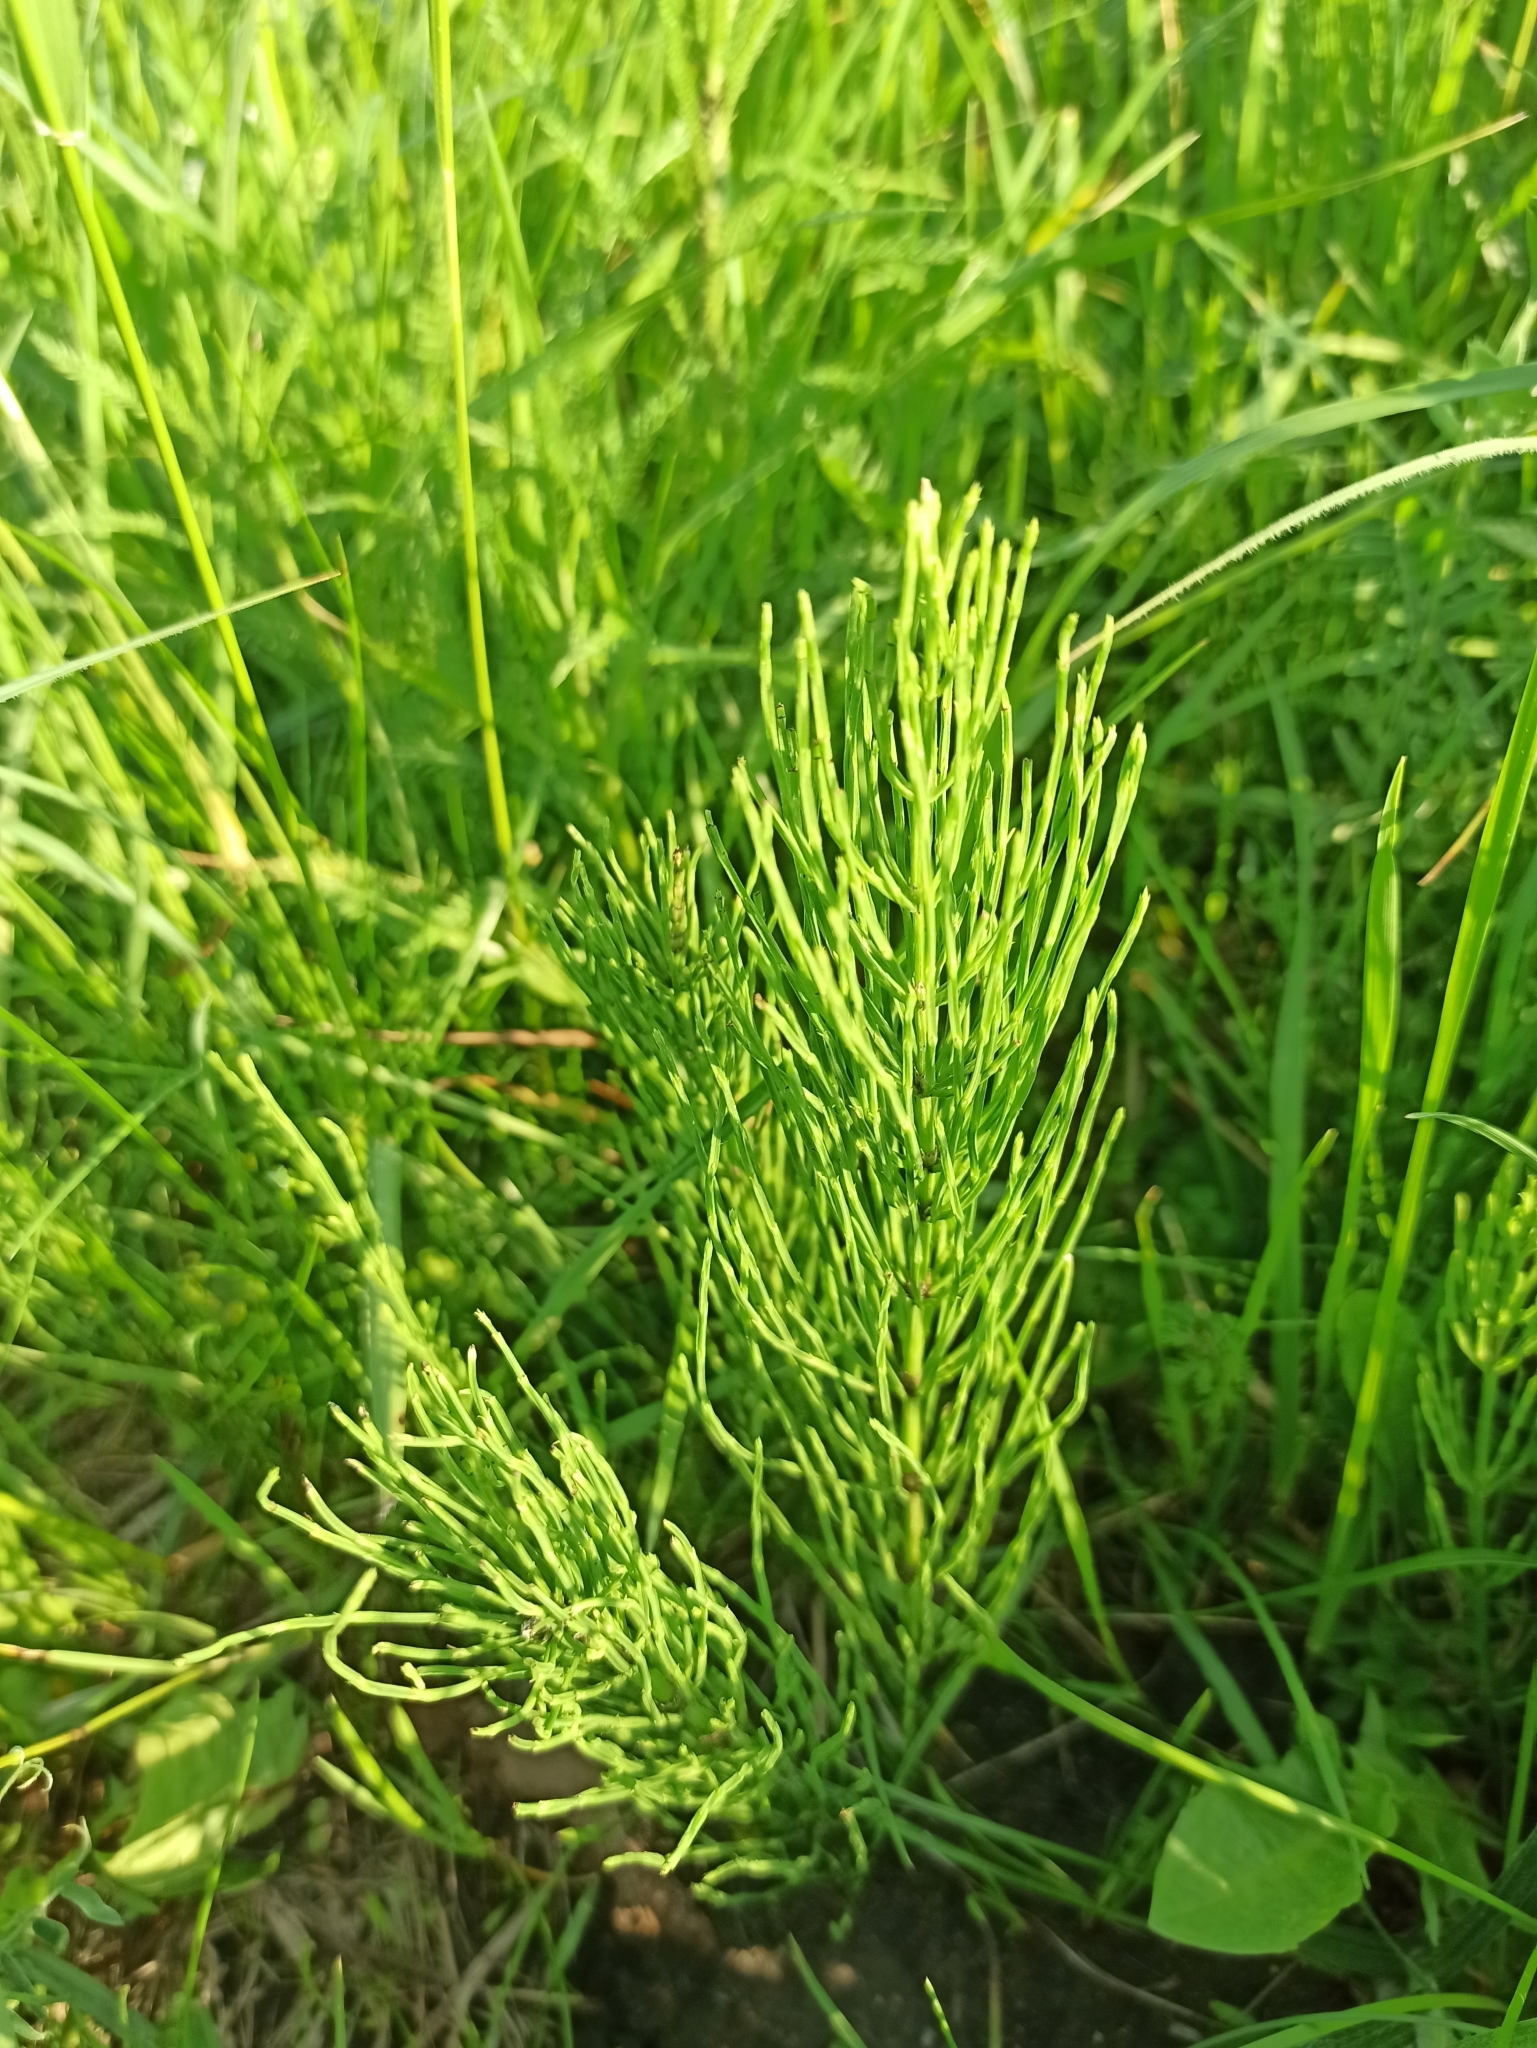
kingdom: Plantae
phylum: Tracheophyta
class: Polypodiopsida
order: Equisetales
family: Equisetaceae
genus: Equisetum
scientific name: Equisetum arvense
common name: Field horsetail
